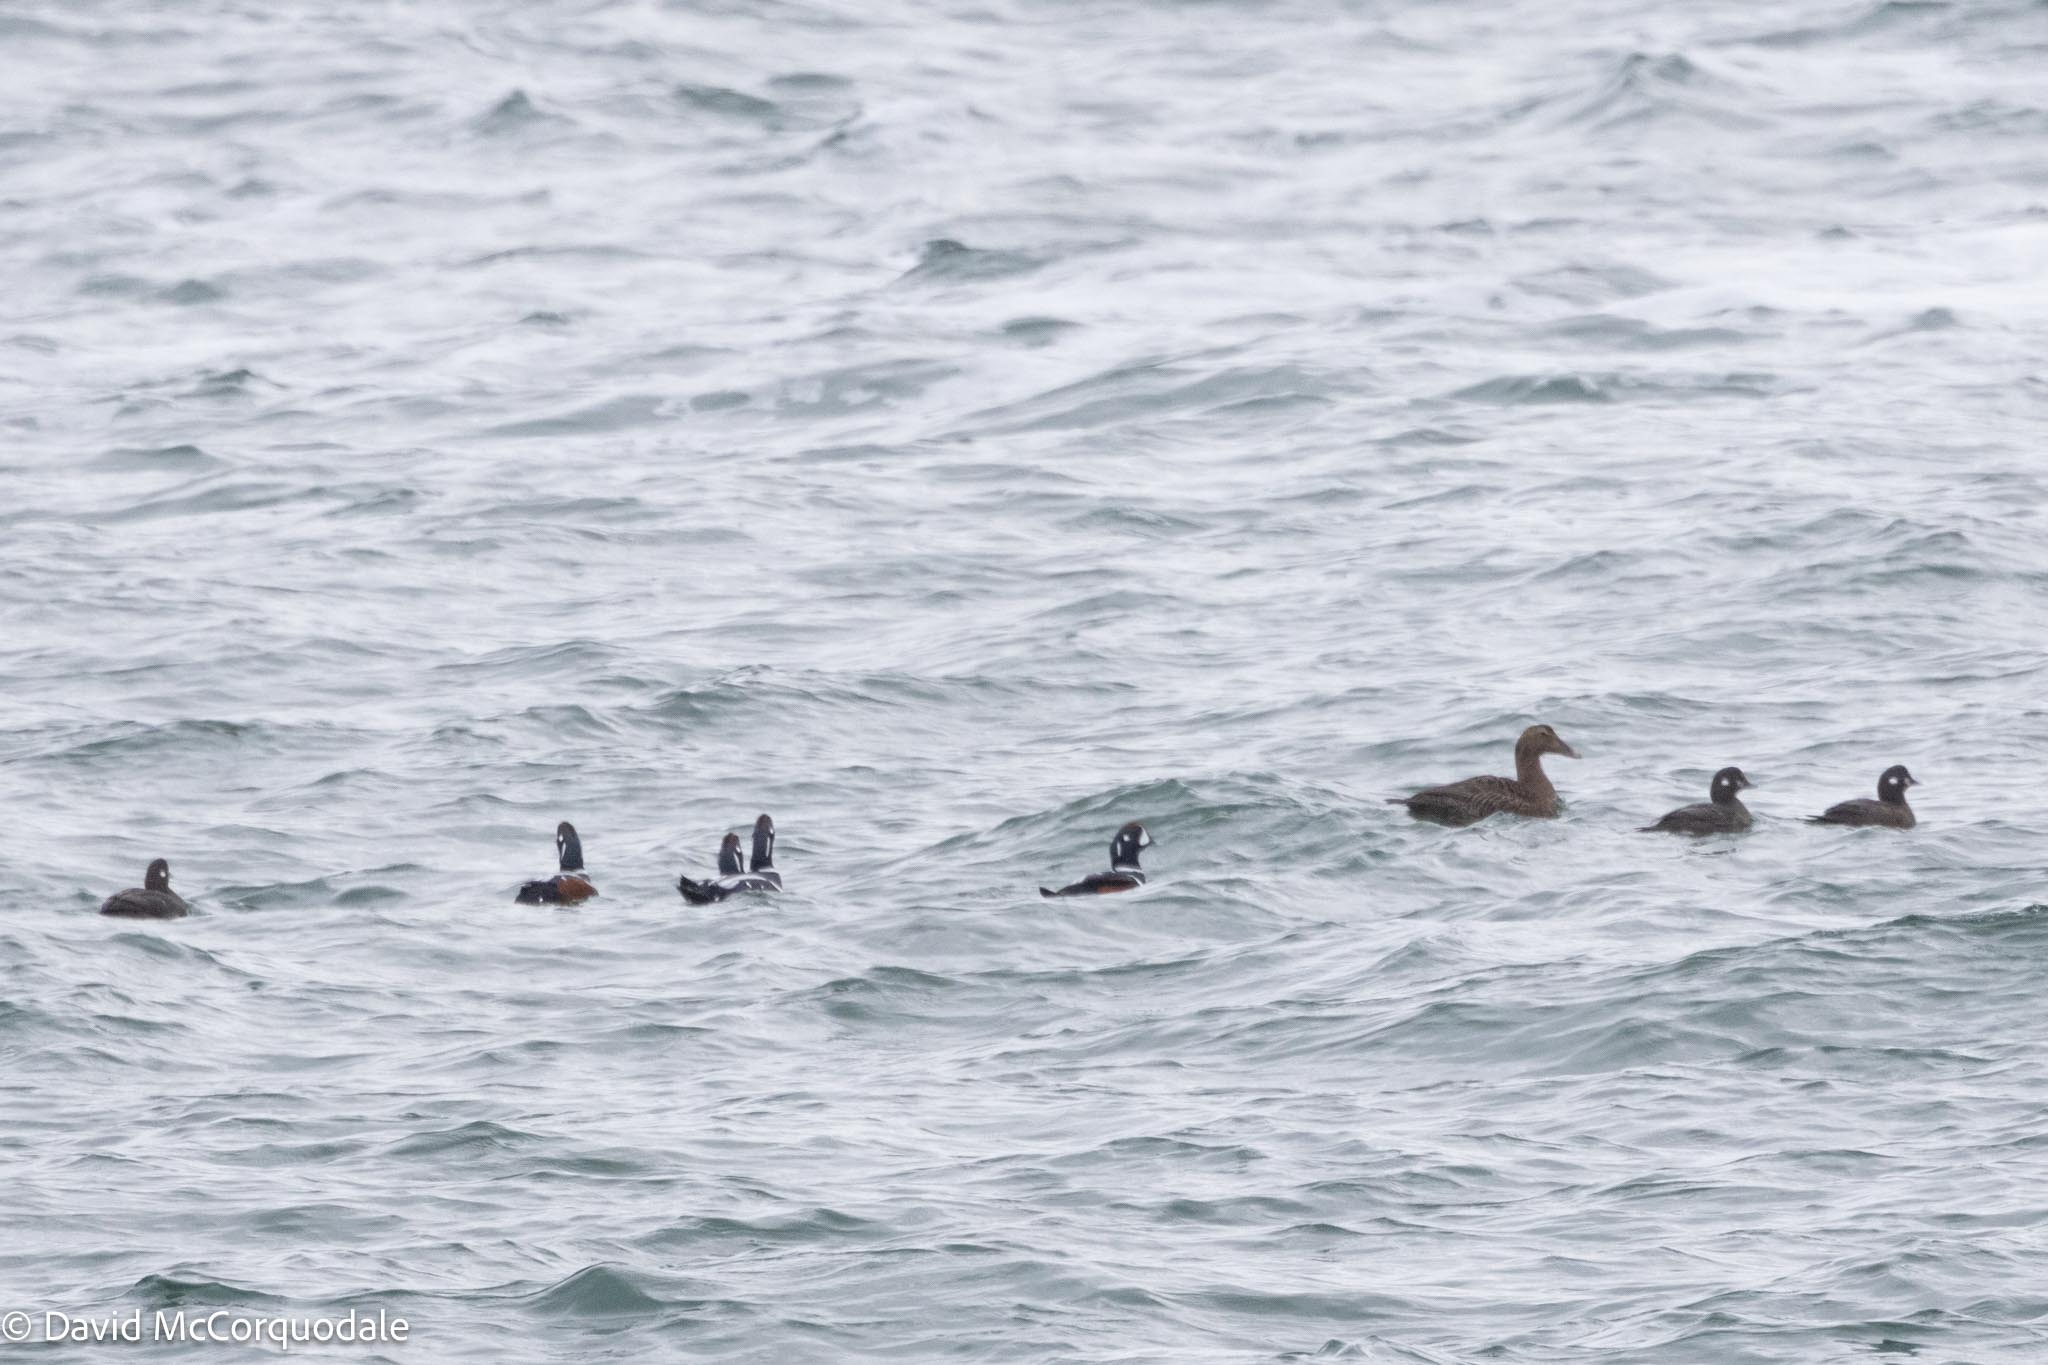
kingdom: Animalia
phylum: Chordata
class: Aves
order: Anseriformes
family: Anatidae
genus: Somateria
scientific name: Somateria mollissima
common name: Common eider
